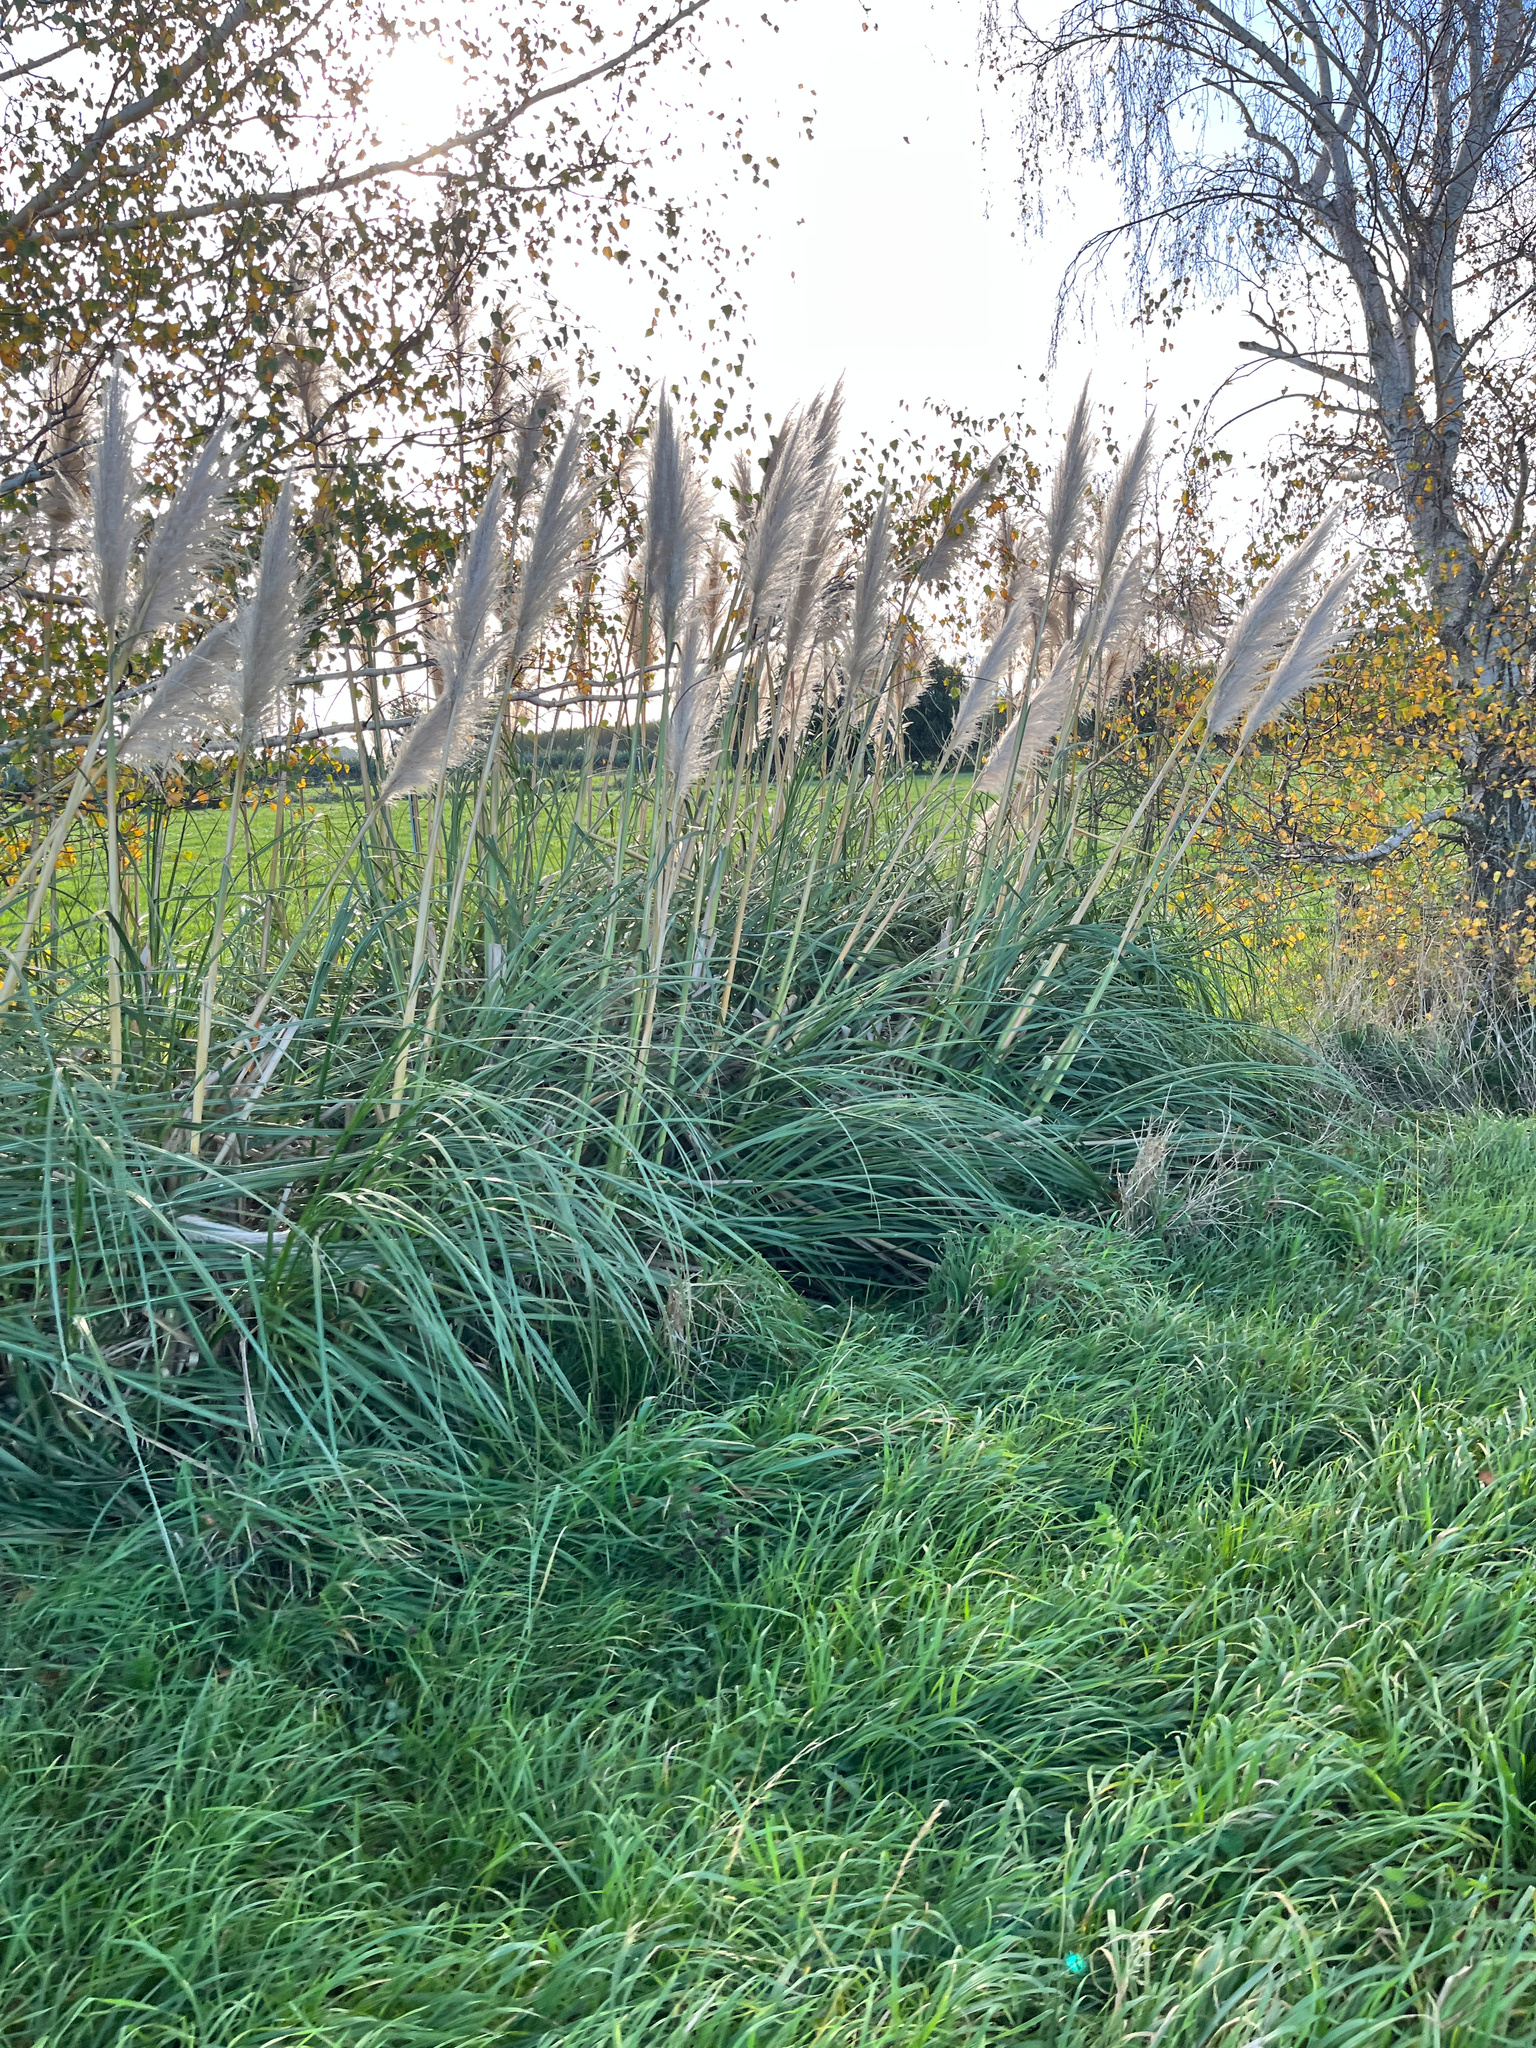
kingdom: Plantae
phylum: Tracheophyta
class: Liliopsida
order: Poales
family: Poaceae
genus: Cortaderia
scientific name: Cortaderia selloana
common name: Uruguayan pampas grass
